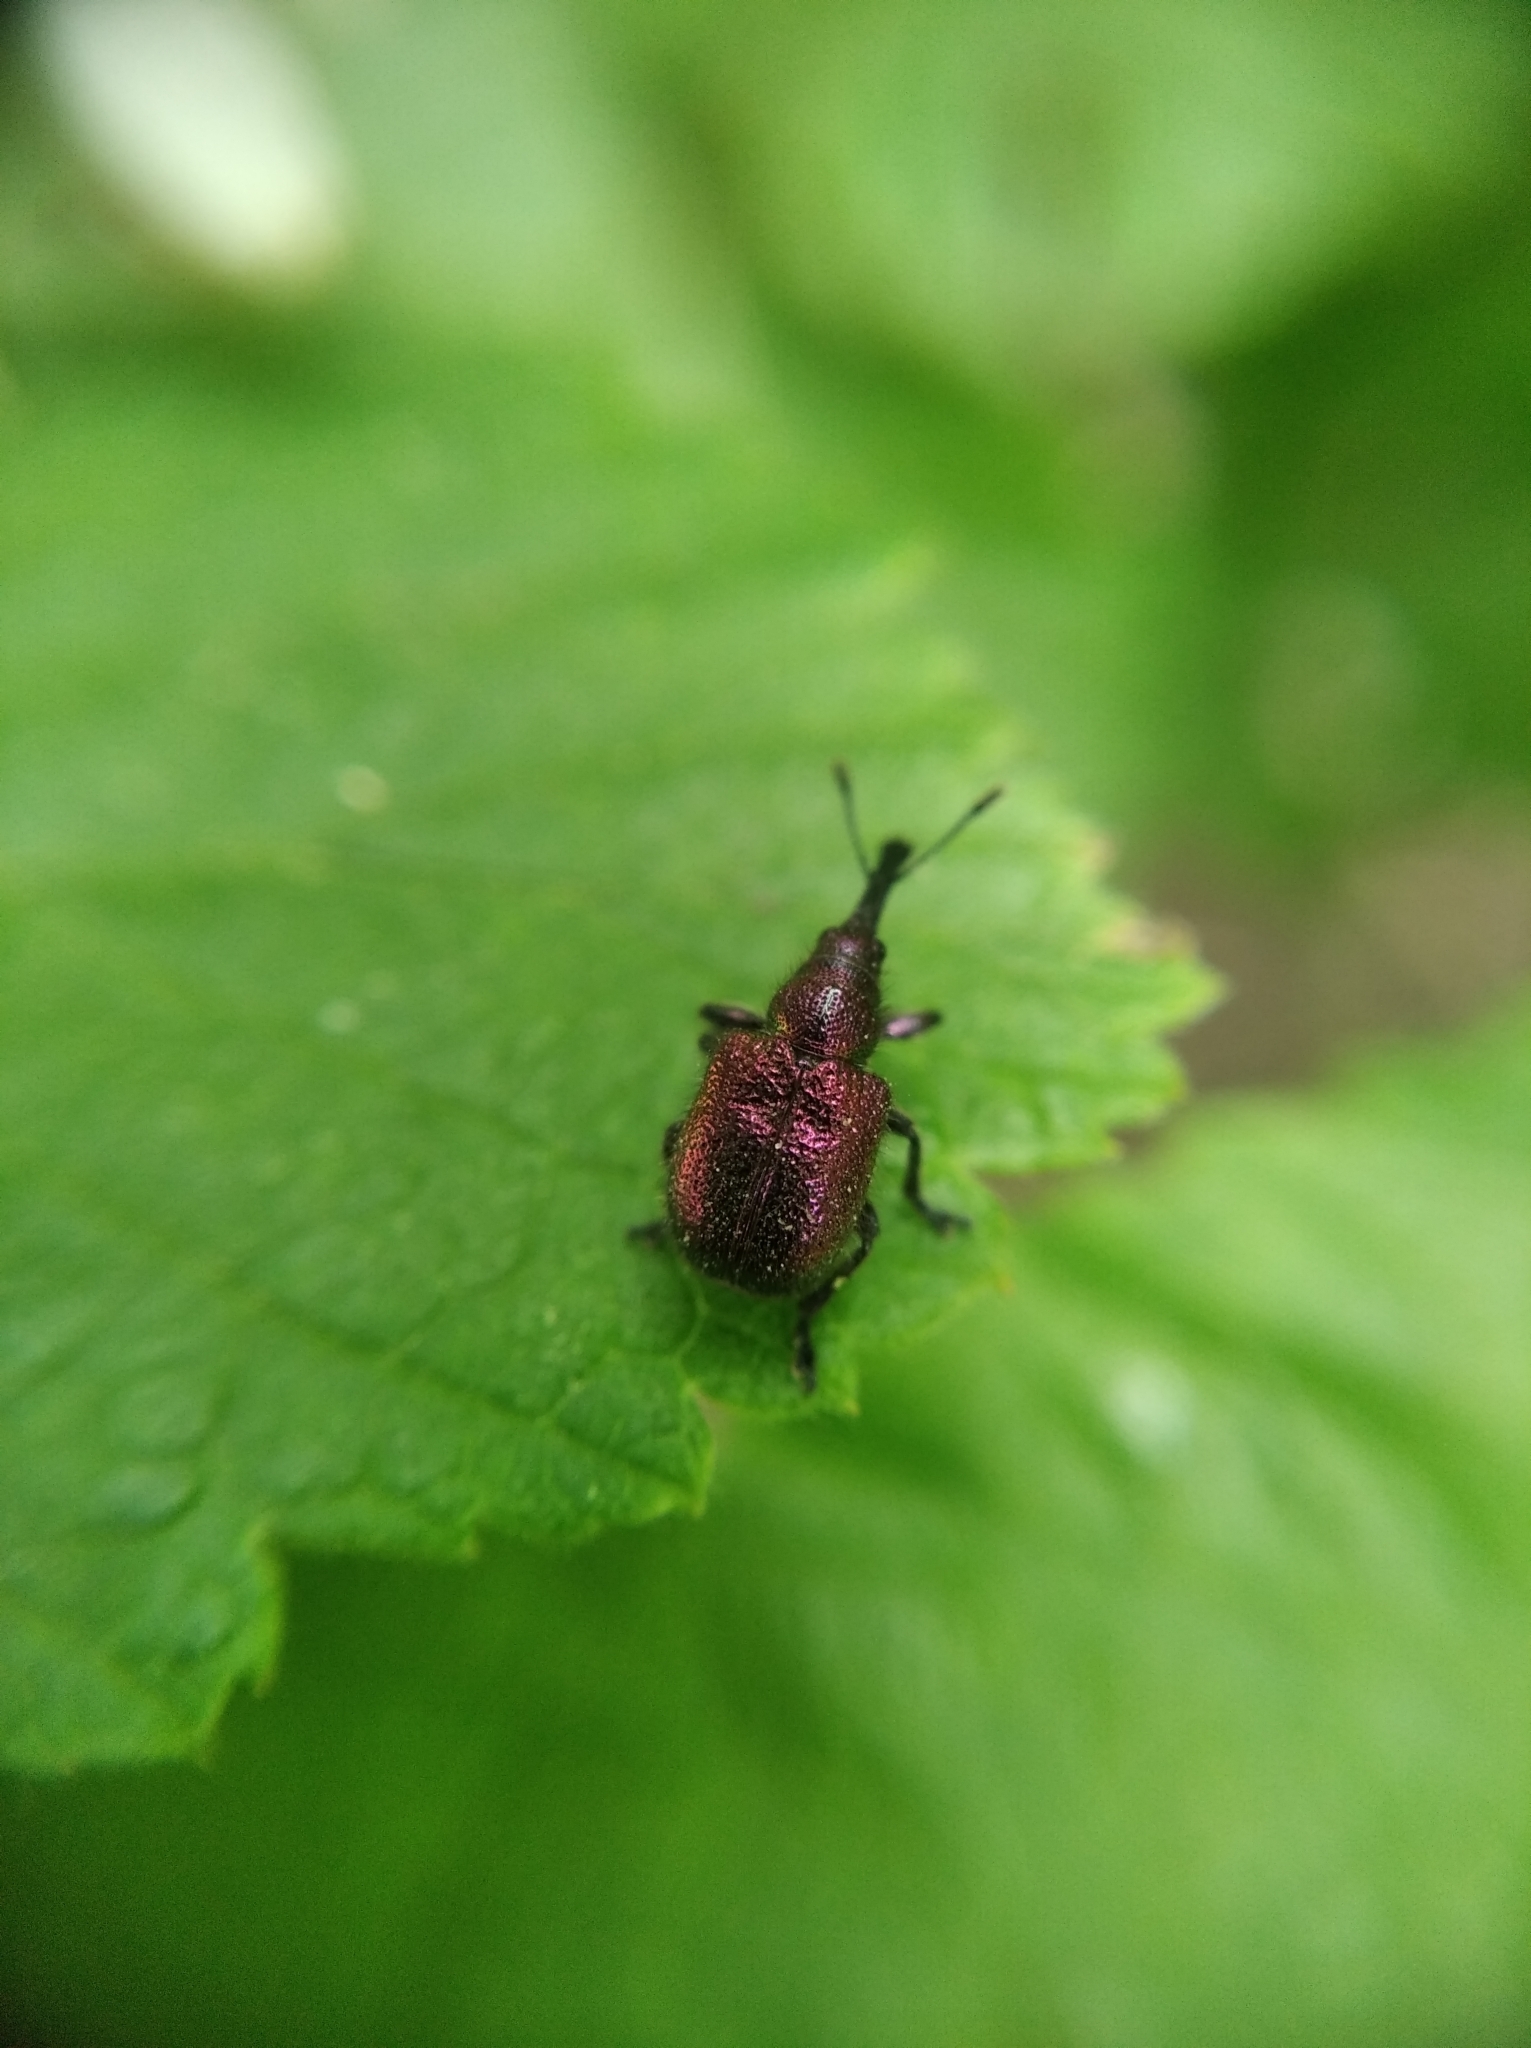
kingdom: Animalia
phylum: Arthropoda
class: Insecta
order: Coleoptera
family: Attelabidae
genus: Rhynchites
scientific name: Rhynchites bacchus
